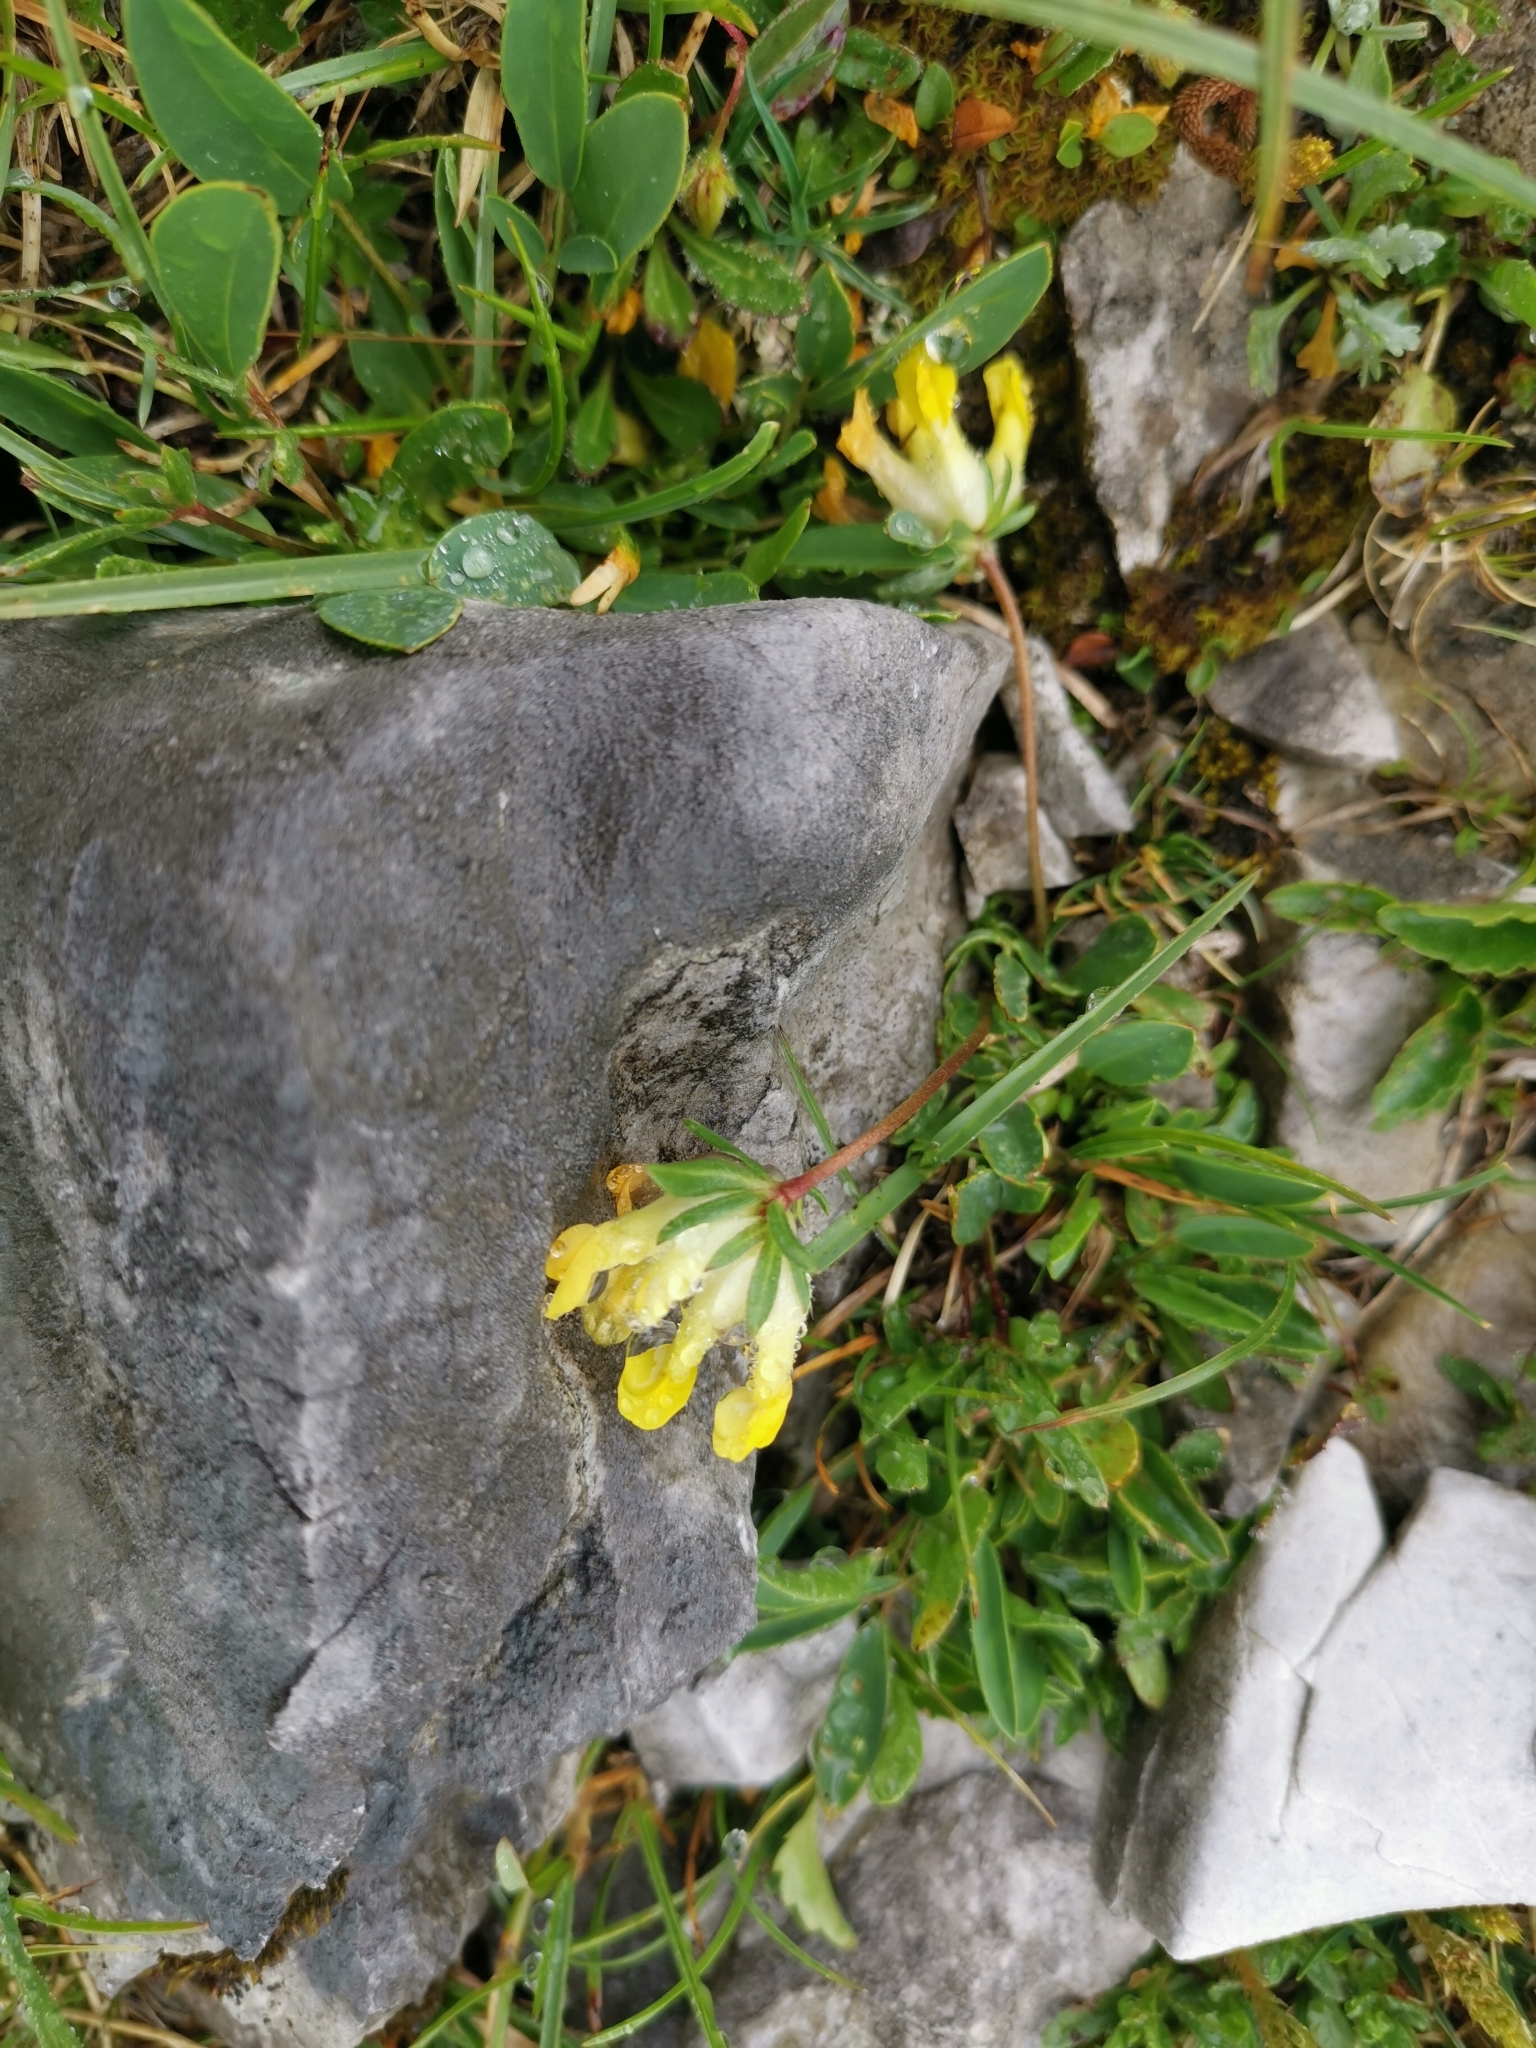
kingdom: Plantae
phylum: Tracheophyta
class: Magnoliopsida
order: Fabales
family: Fabaceae
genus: Anthyllis
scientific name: Anthyllis vulneraria
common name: Kidney vetch
